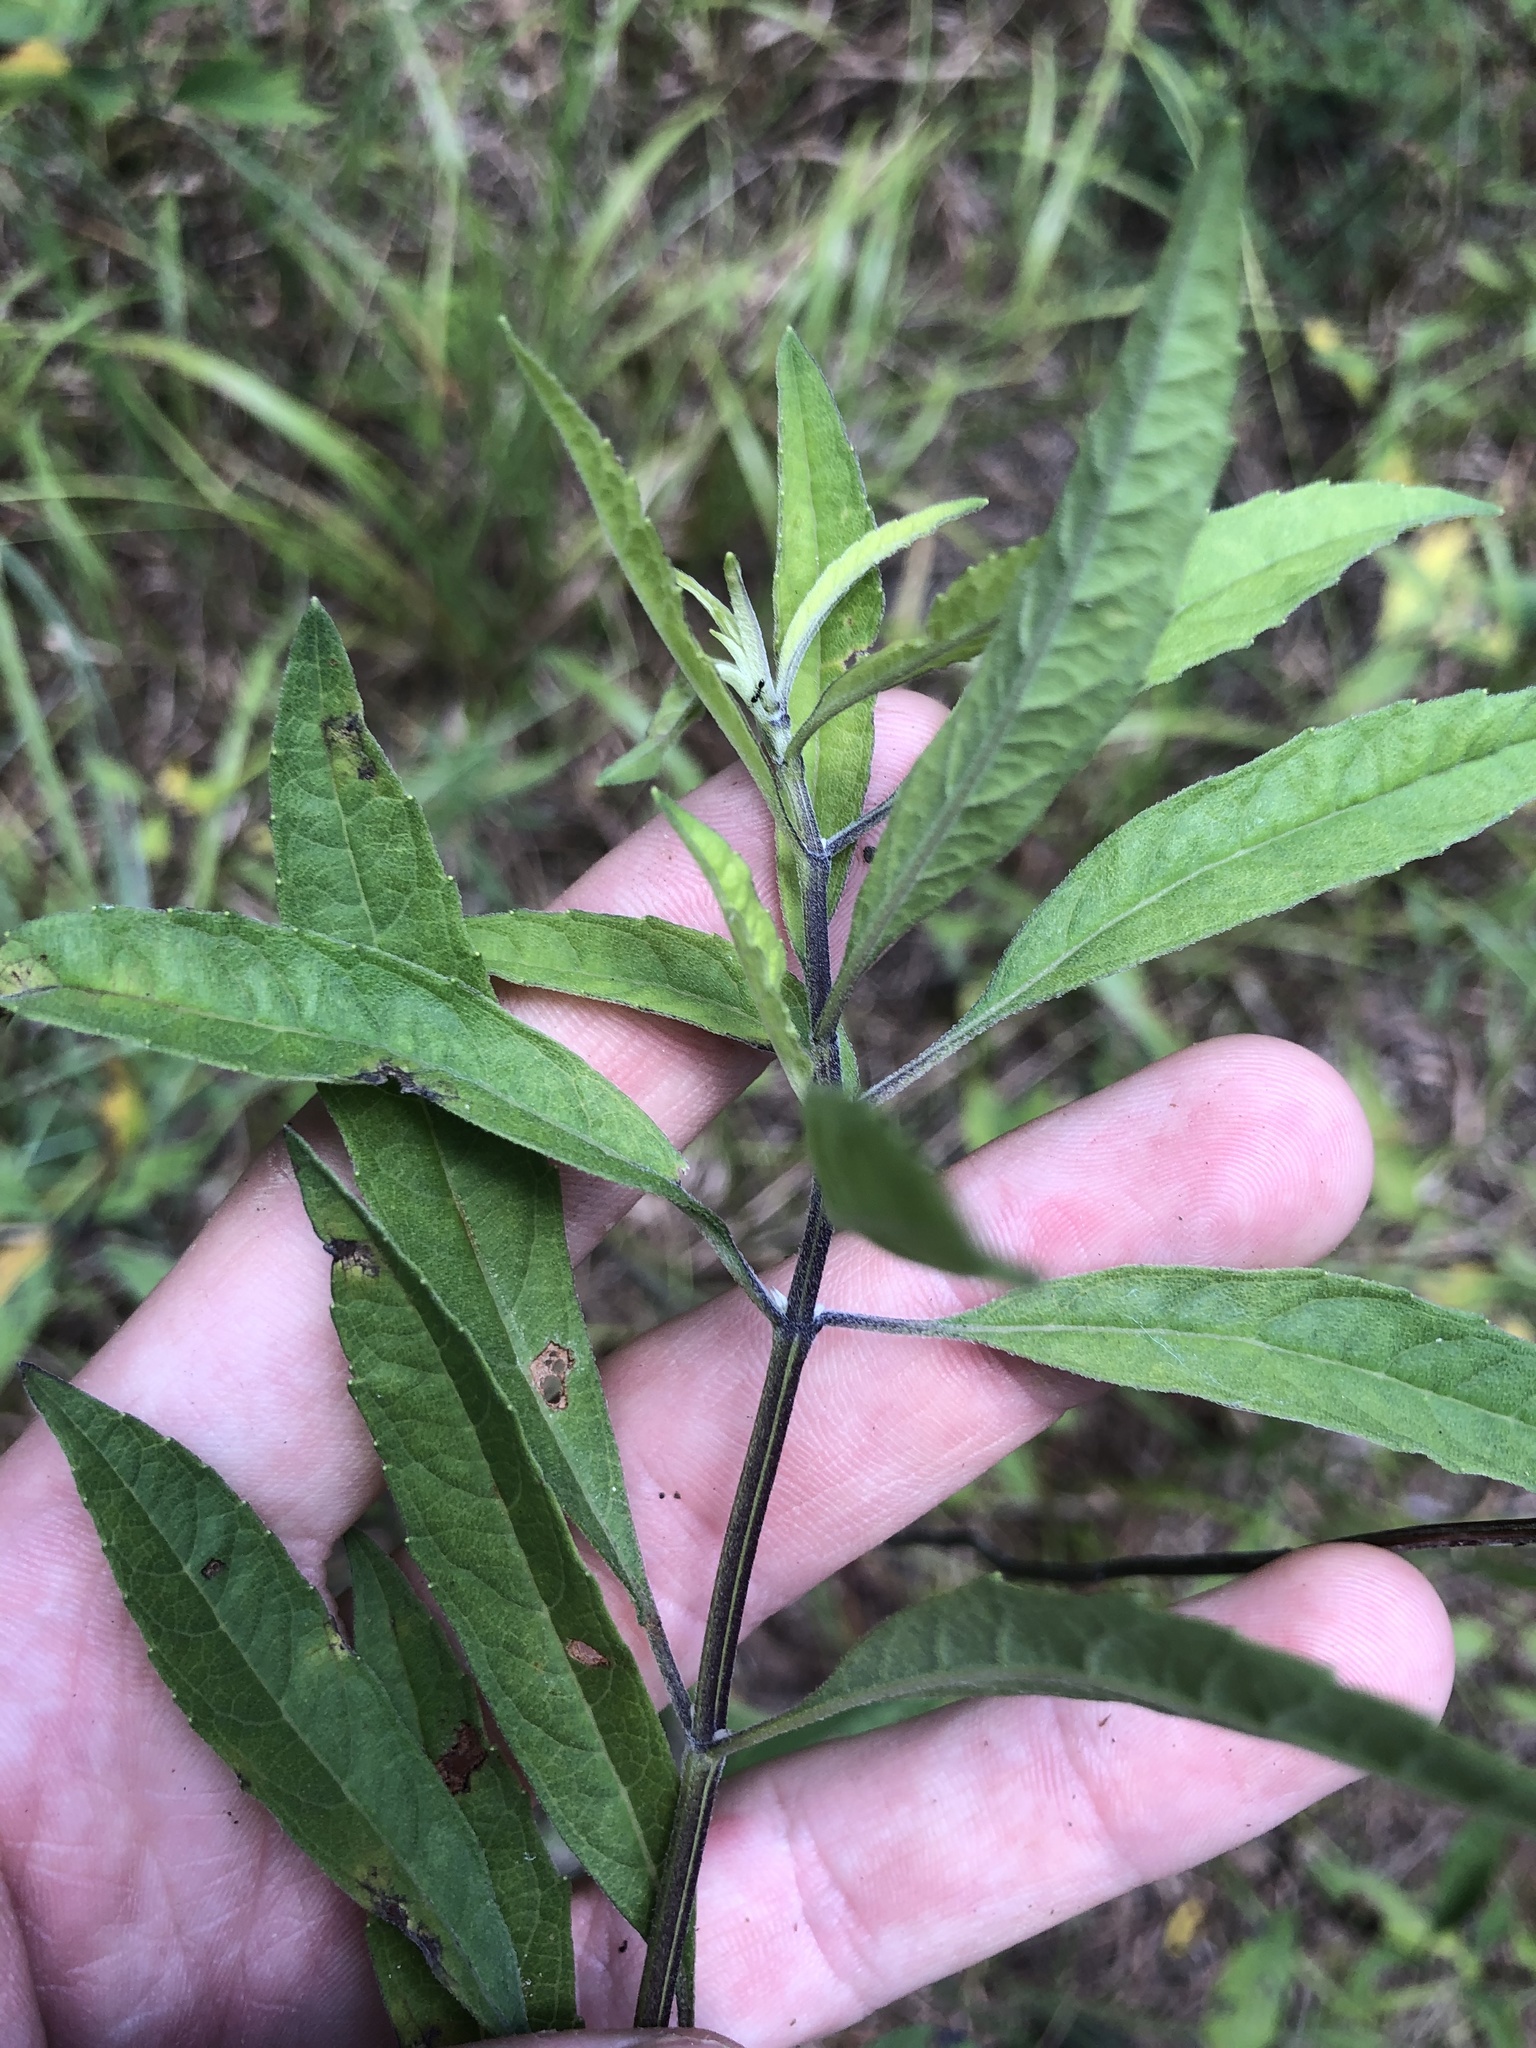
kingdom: Plantae
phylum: Tracheophyta
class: Magnoliopsida
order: Lamiales
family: Lamiaceae
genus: Salvia
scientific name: Salvia azurea
